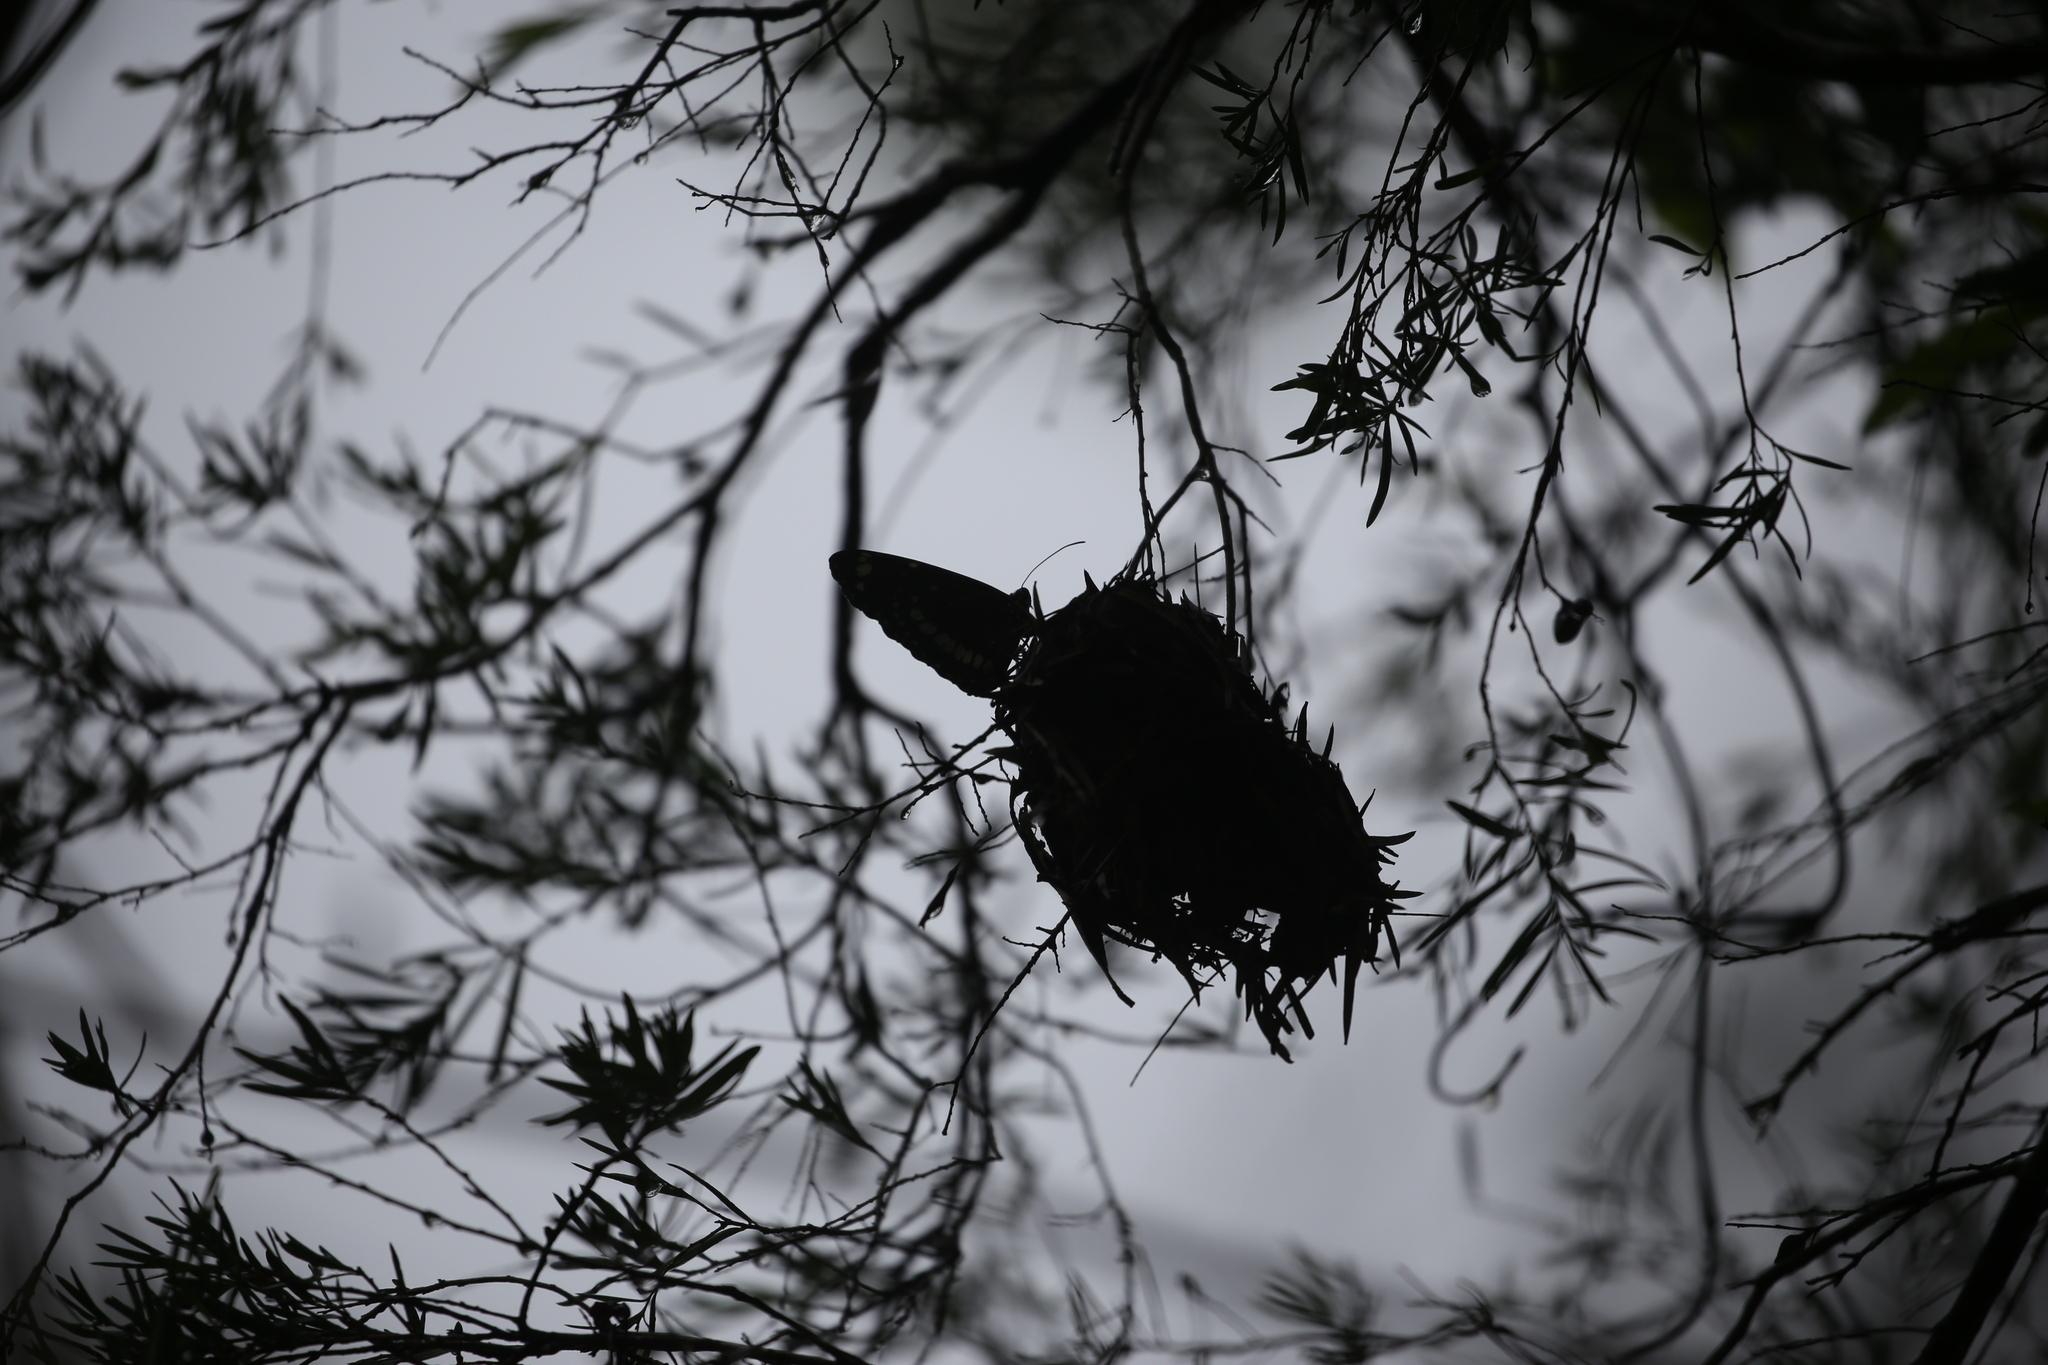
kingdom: Animalia
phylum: Arthropoda
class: Insecta
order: Lepidoptera
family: Nymphalidae
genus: Euploea
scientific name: Euploea core
